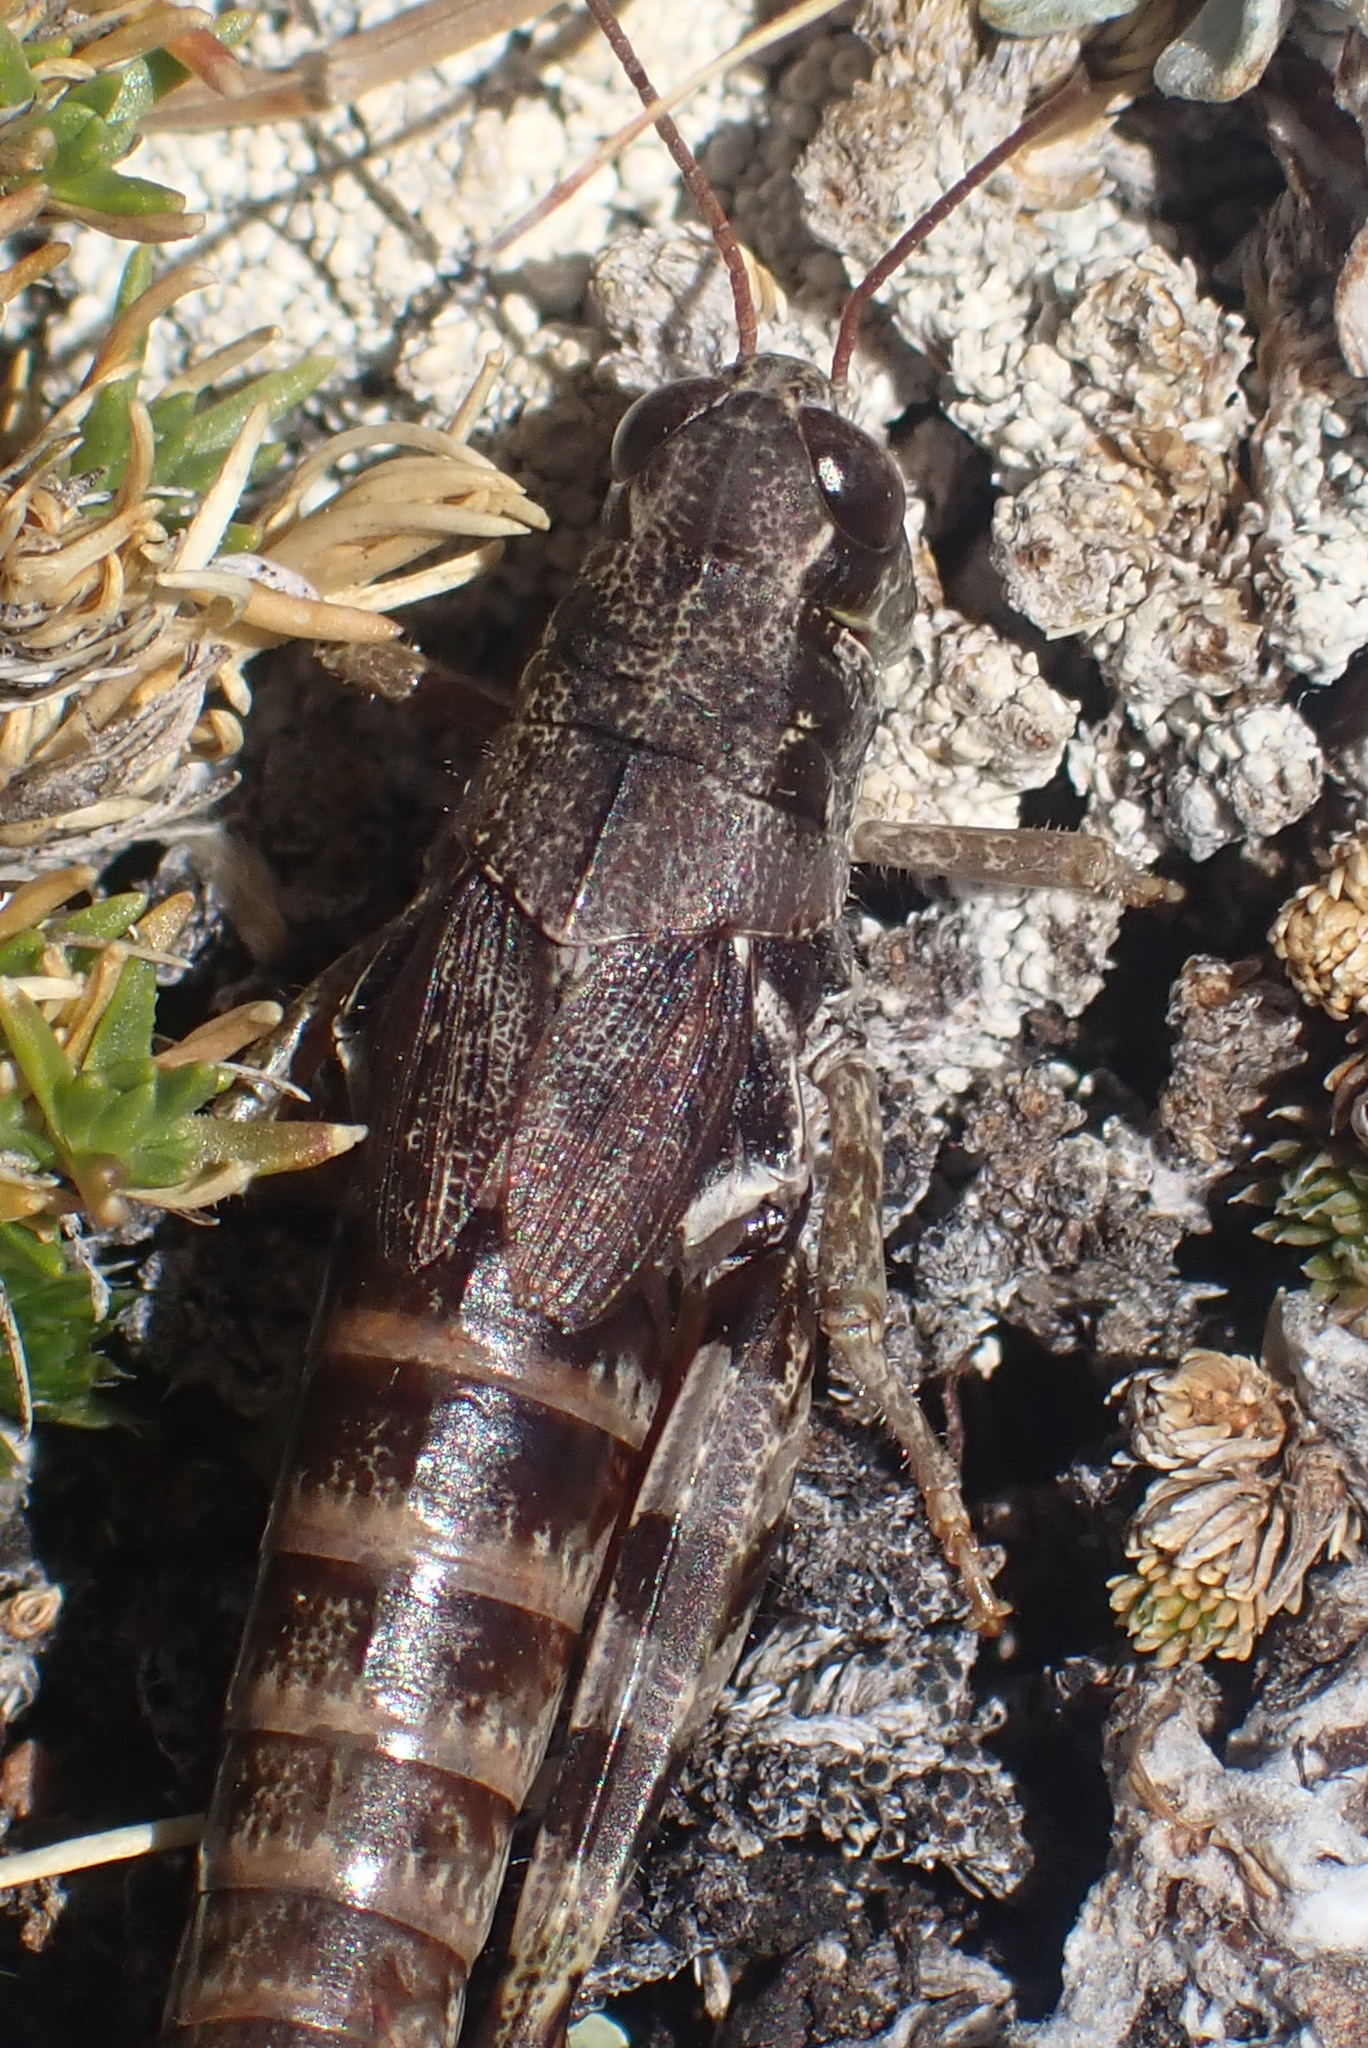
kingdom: Animalia
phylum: Arthropoda
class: Insecta
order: Orthoptera
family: Acrididae
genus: Melanoplus
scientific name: Melanoplus molothrus
